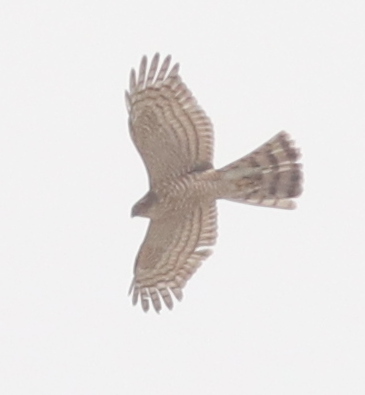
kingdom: Animalia
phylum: Chordata
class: Aves
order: Accipitriformes
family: Accipitridae
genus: Accipiter
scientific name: Accipiter nisus
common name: Eurasian sparrowhawk
